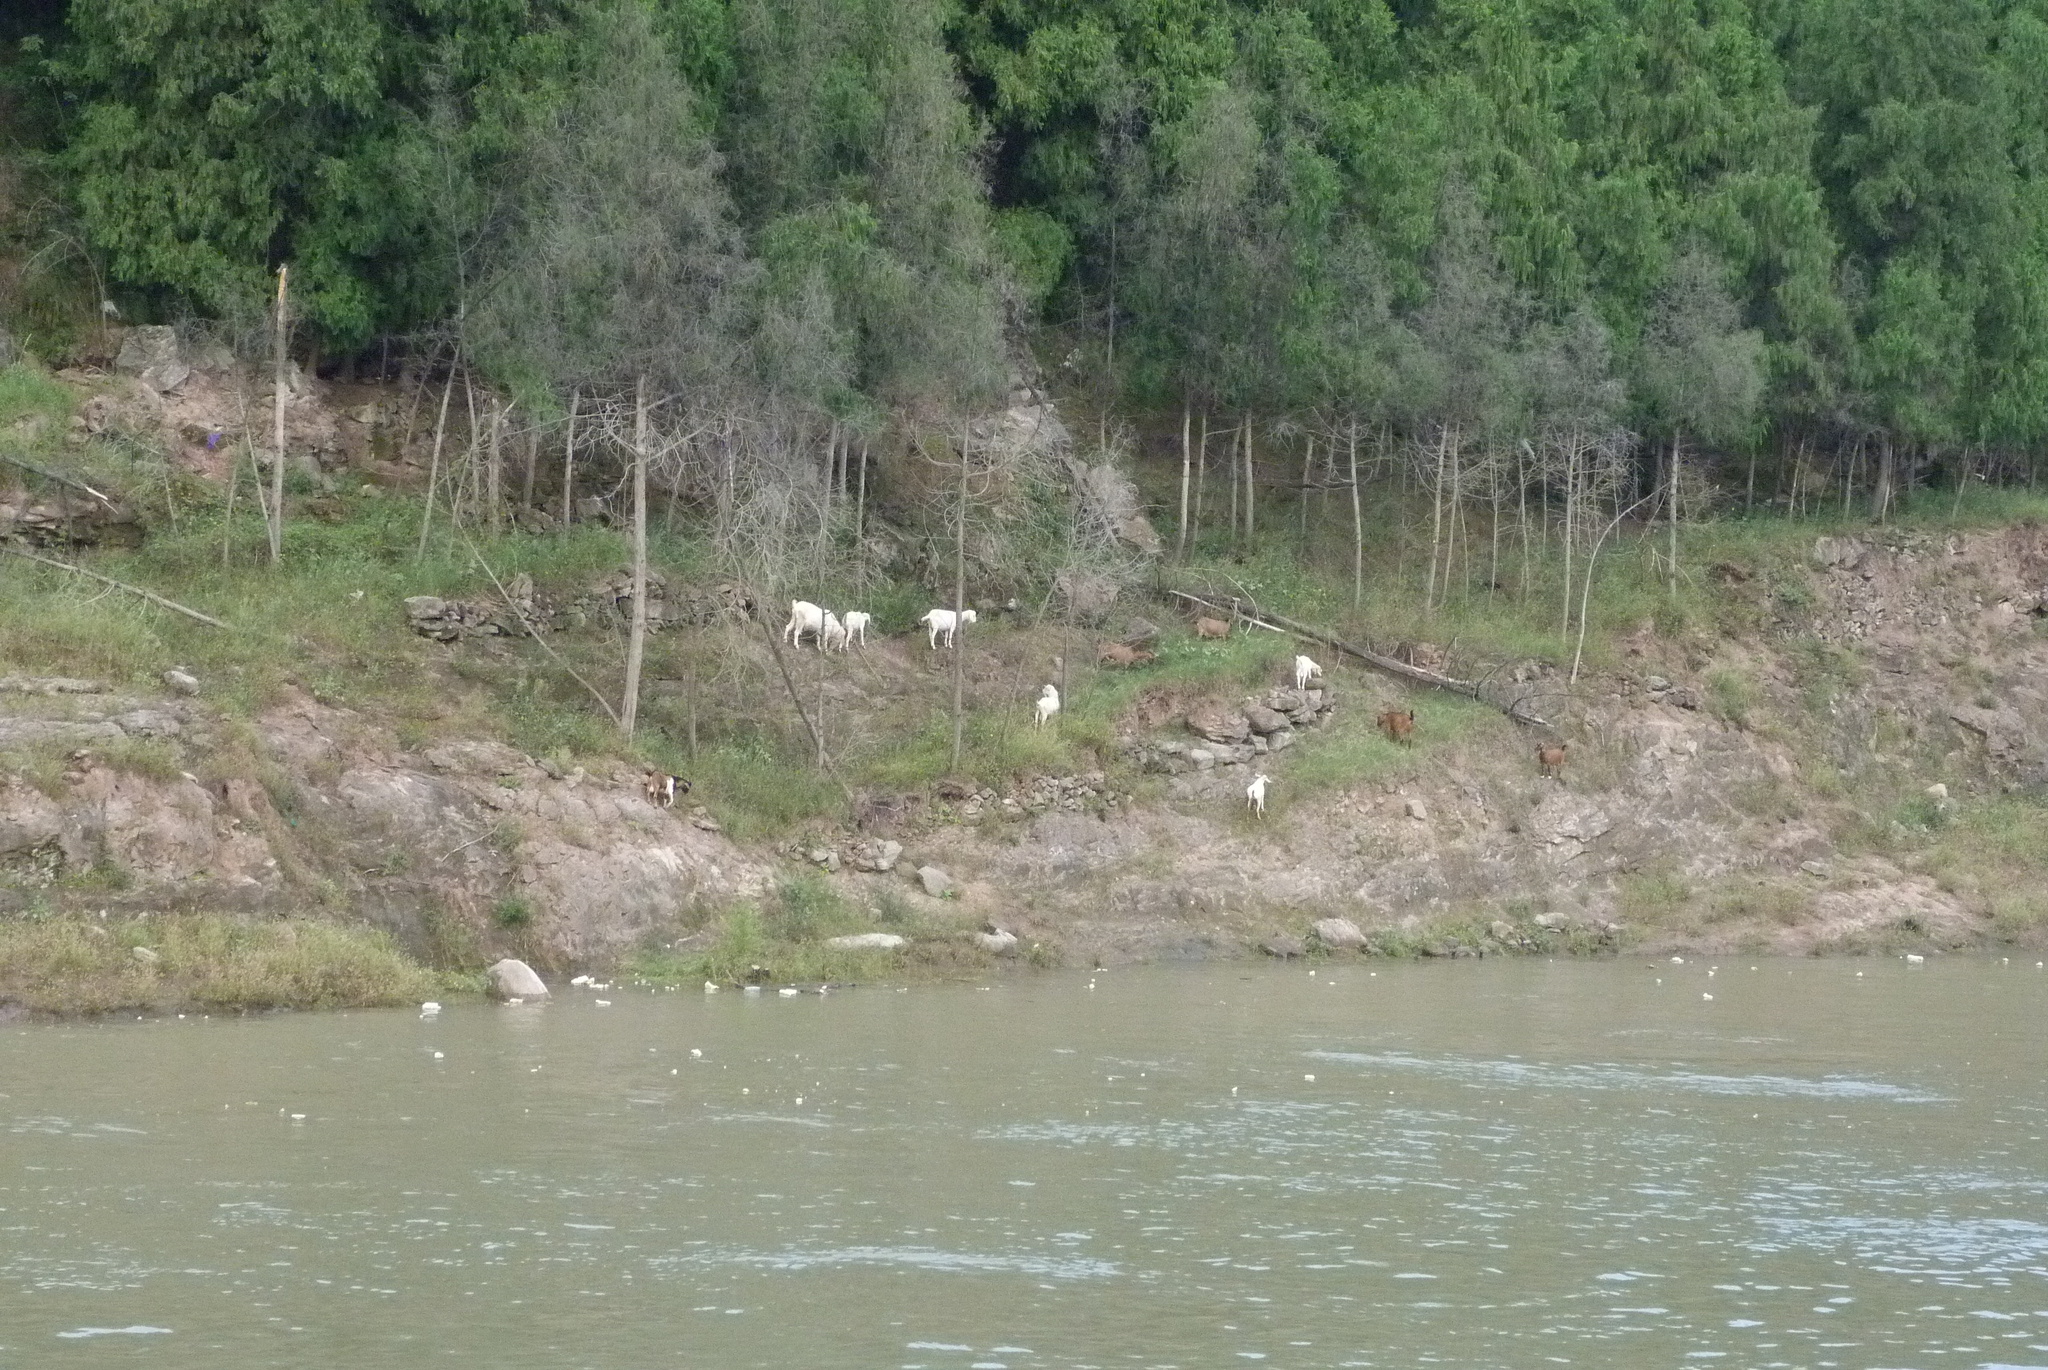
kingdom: Animalia
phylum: Chordata
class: Mammalia
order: Artiodactyla
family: Bovidae
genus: Capra
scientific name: Capra hircus
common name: Domestic goat
